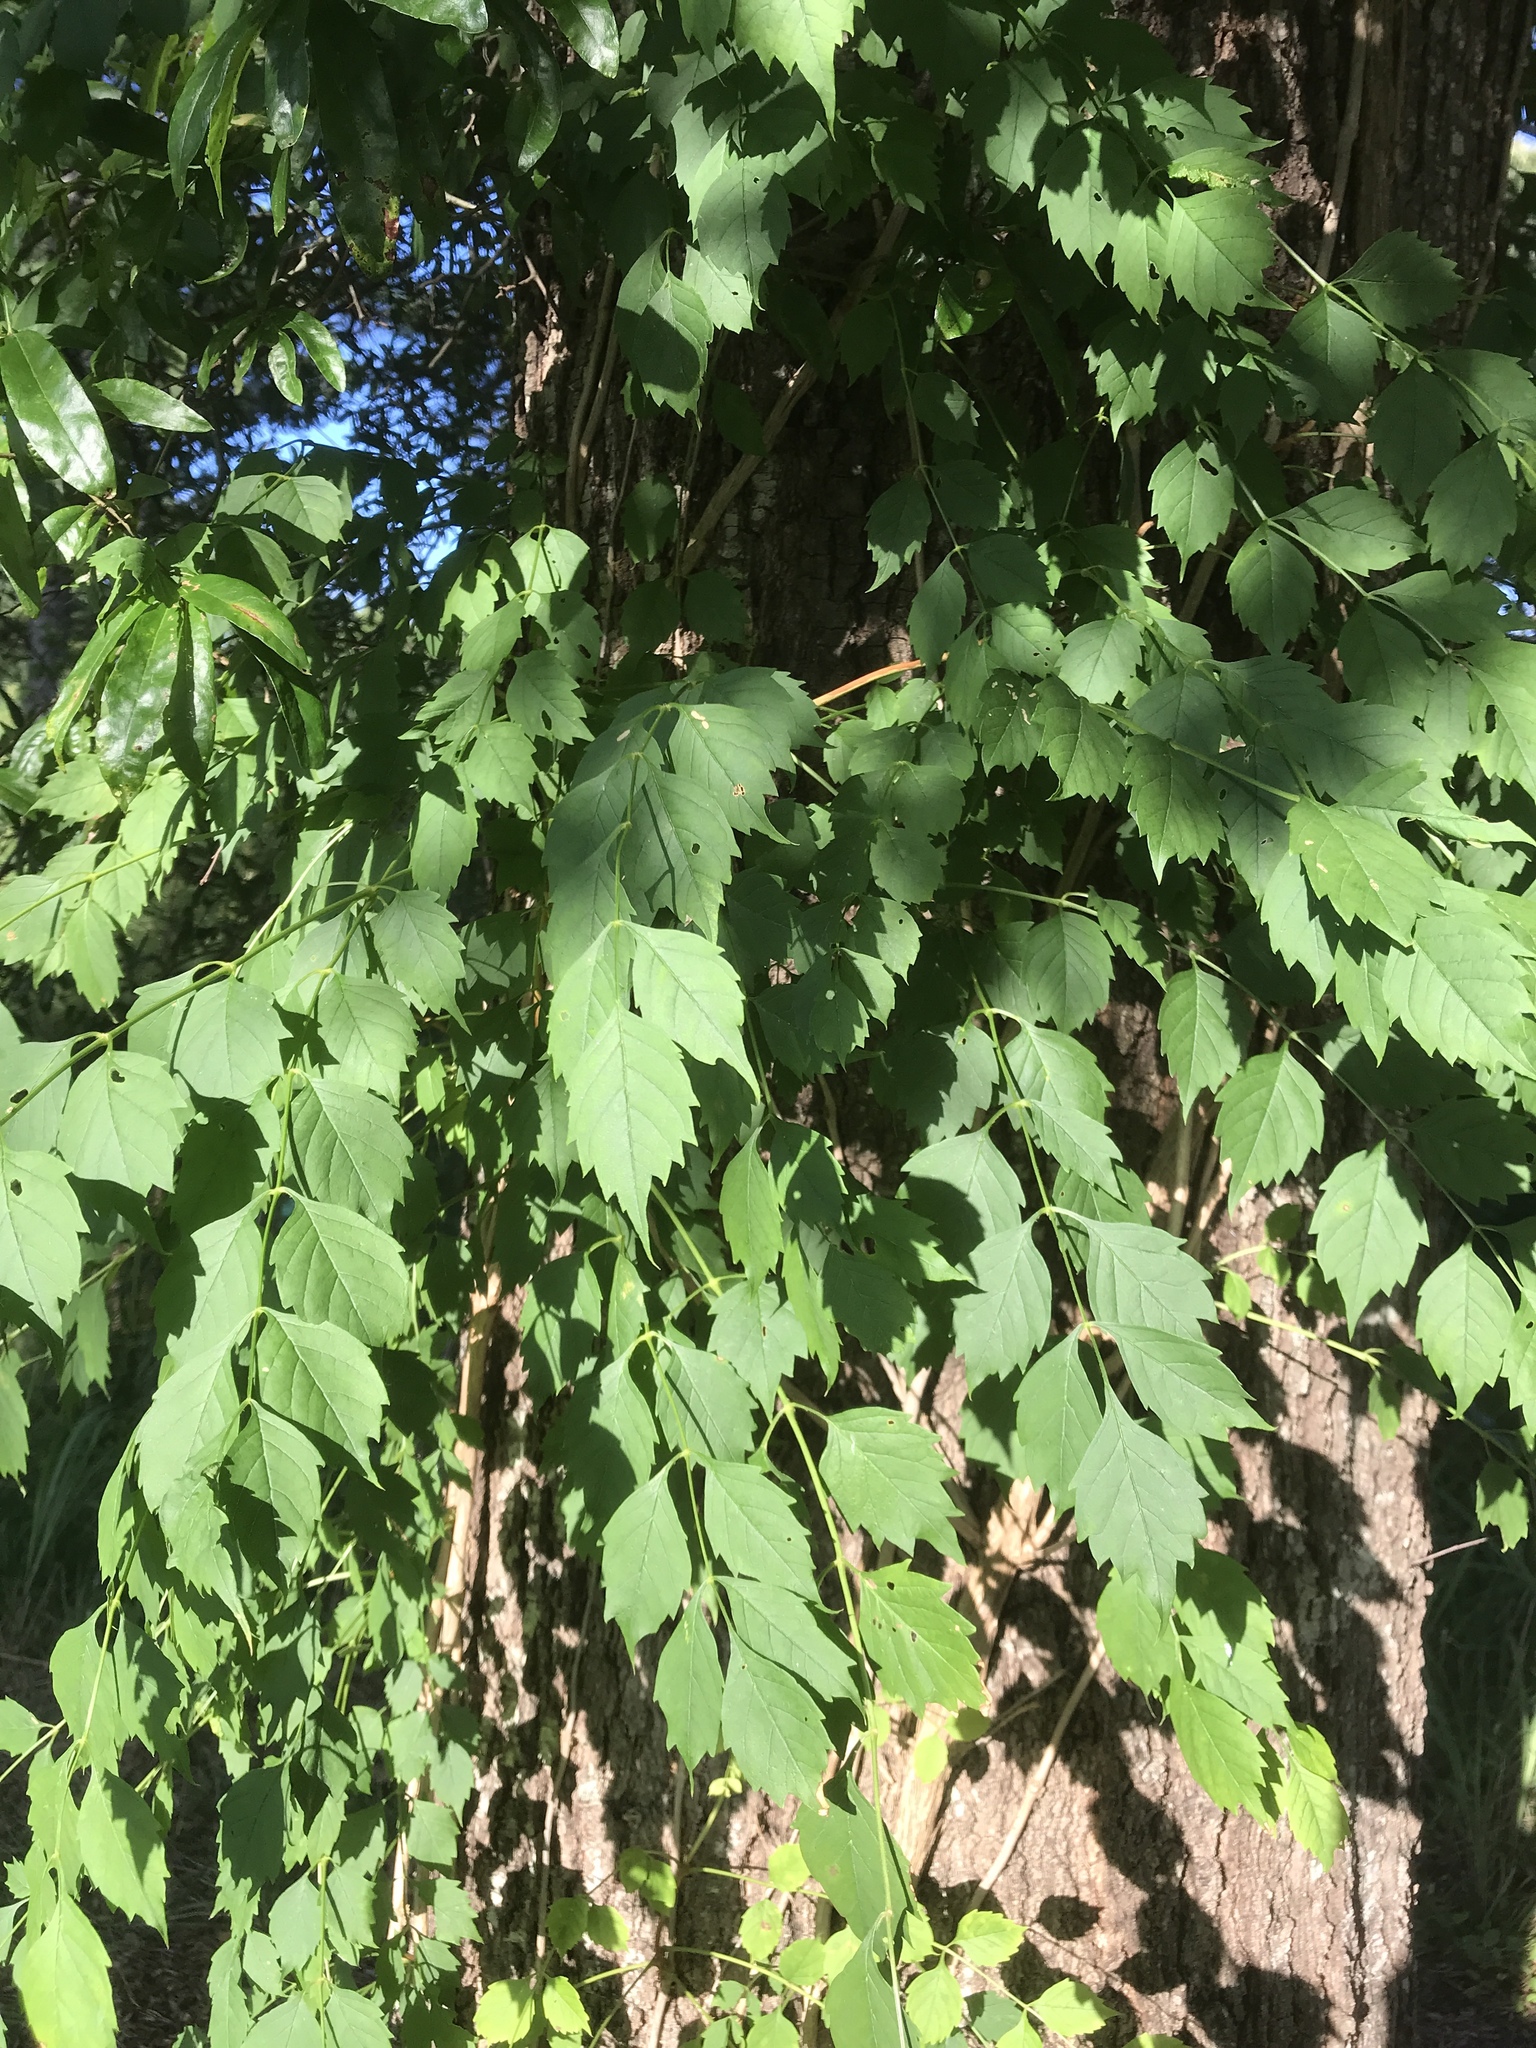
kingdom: Plantae
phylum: Tracheophyta
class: Magnoliopsida
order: Lamiales
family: Bignoniaceae
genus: Campsis
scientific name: Campsis radicans
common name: Trumpet-creeper
